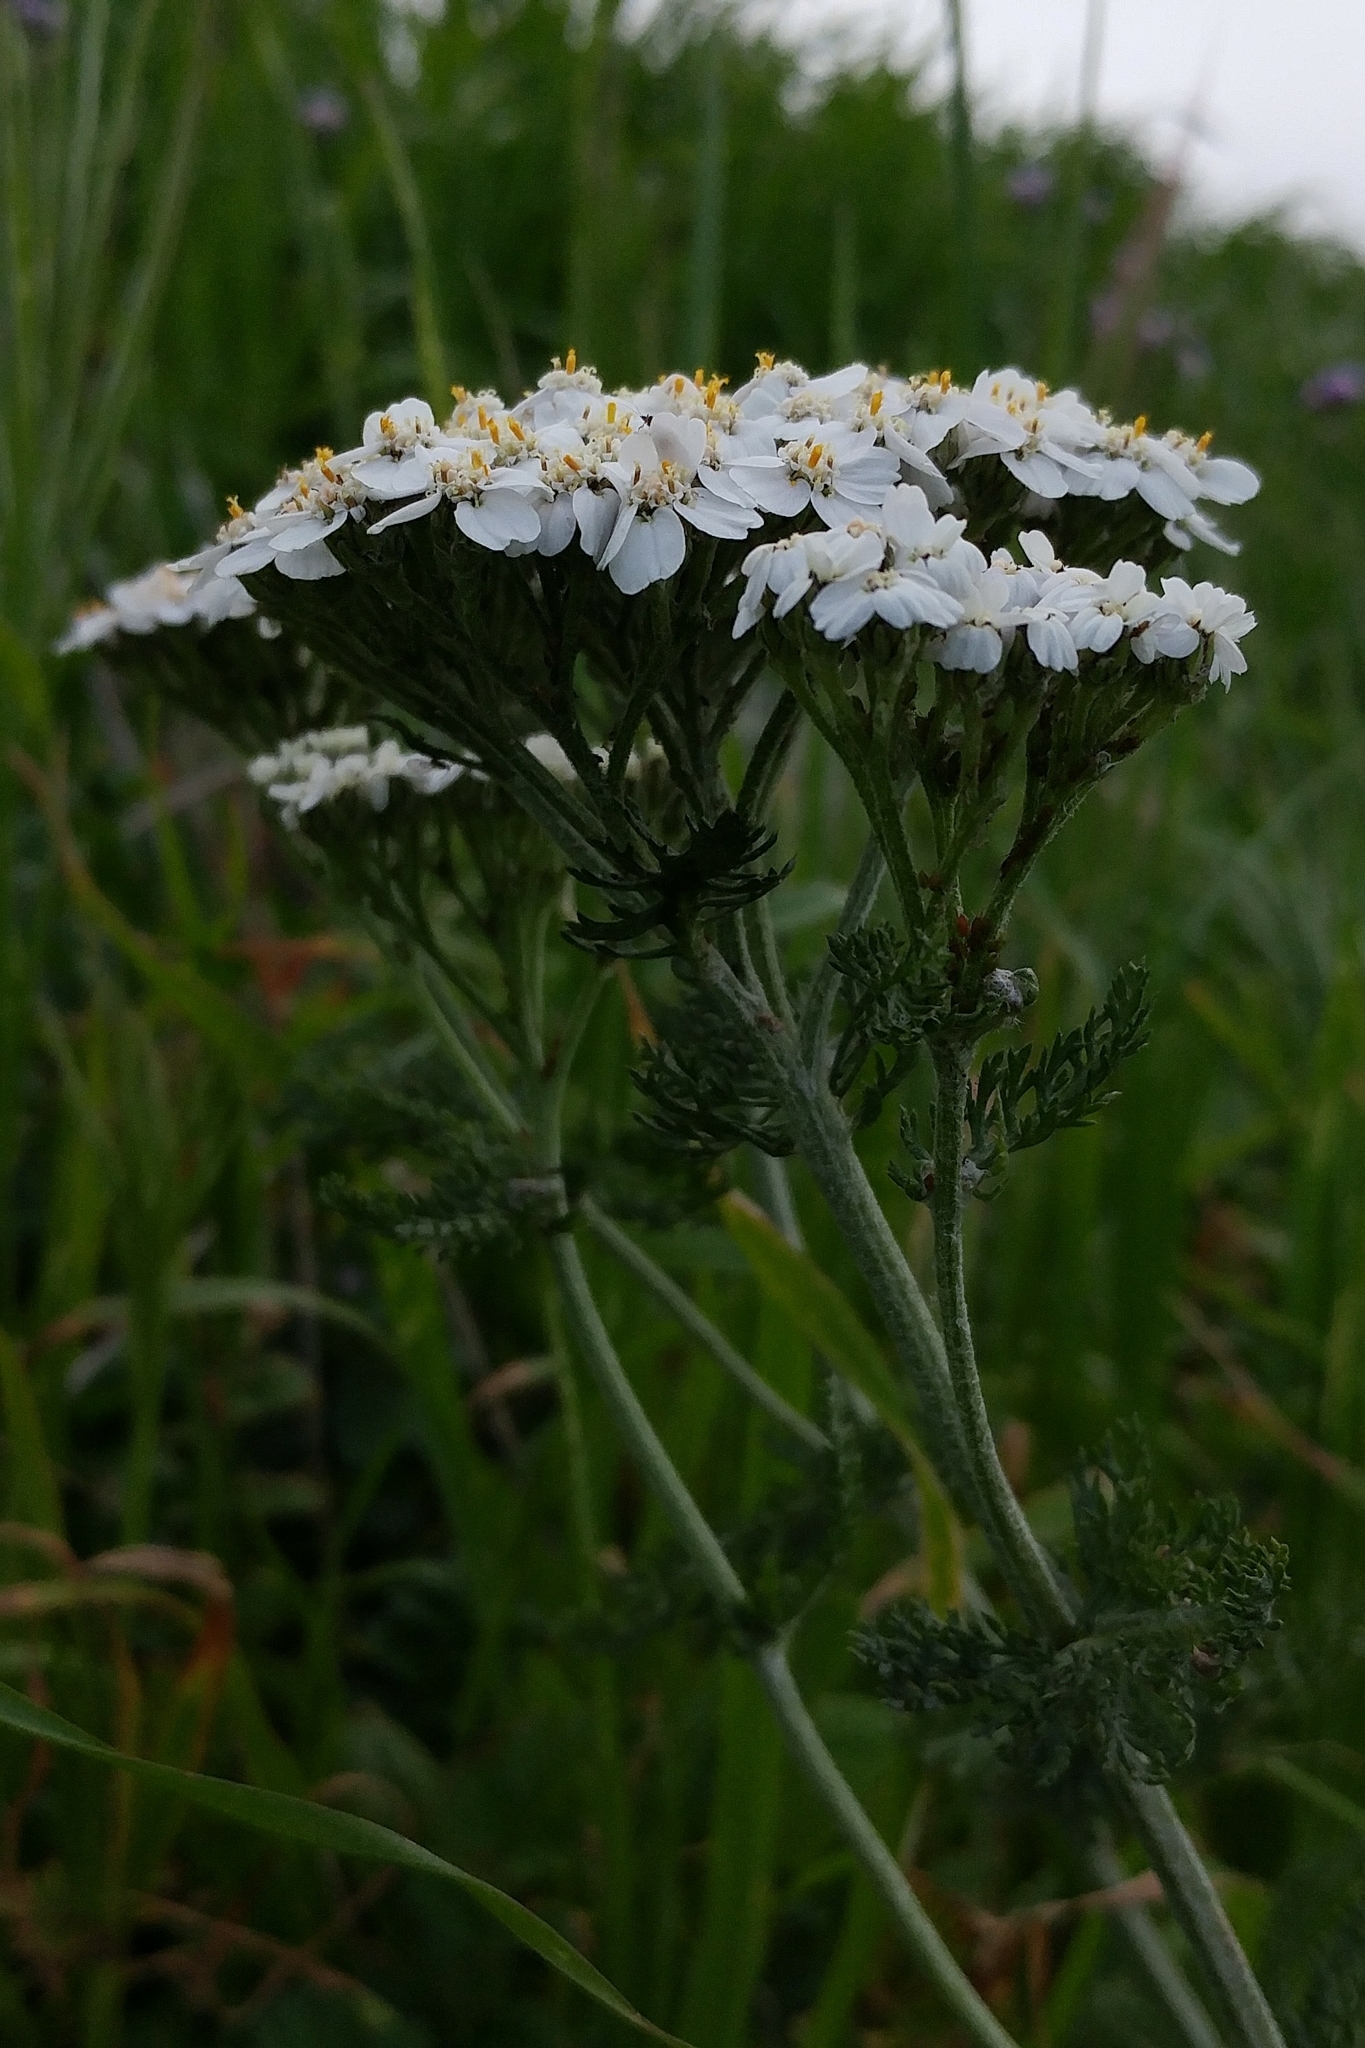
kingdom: Plantae
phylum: Tracheophyta
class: Magnoliopsida
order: Asterales
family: Asteraceae
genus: Achillea
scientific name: Achillea millefolium
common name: Yarrow
